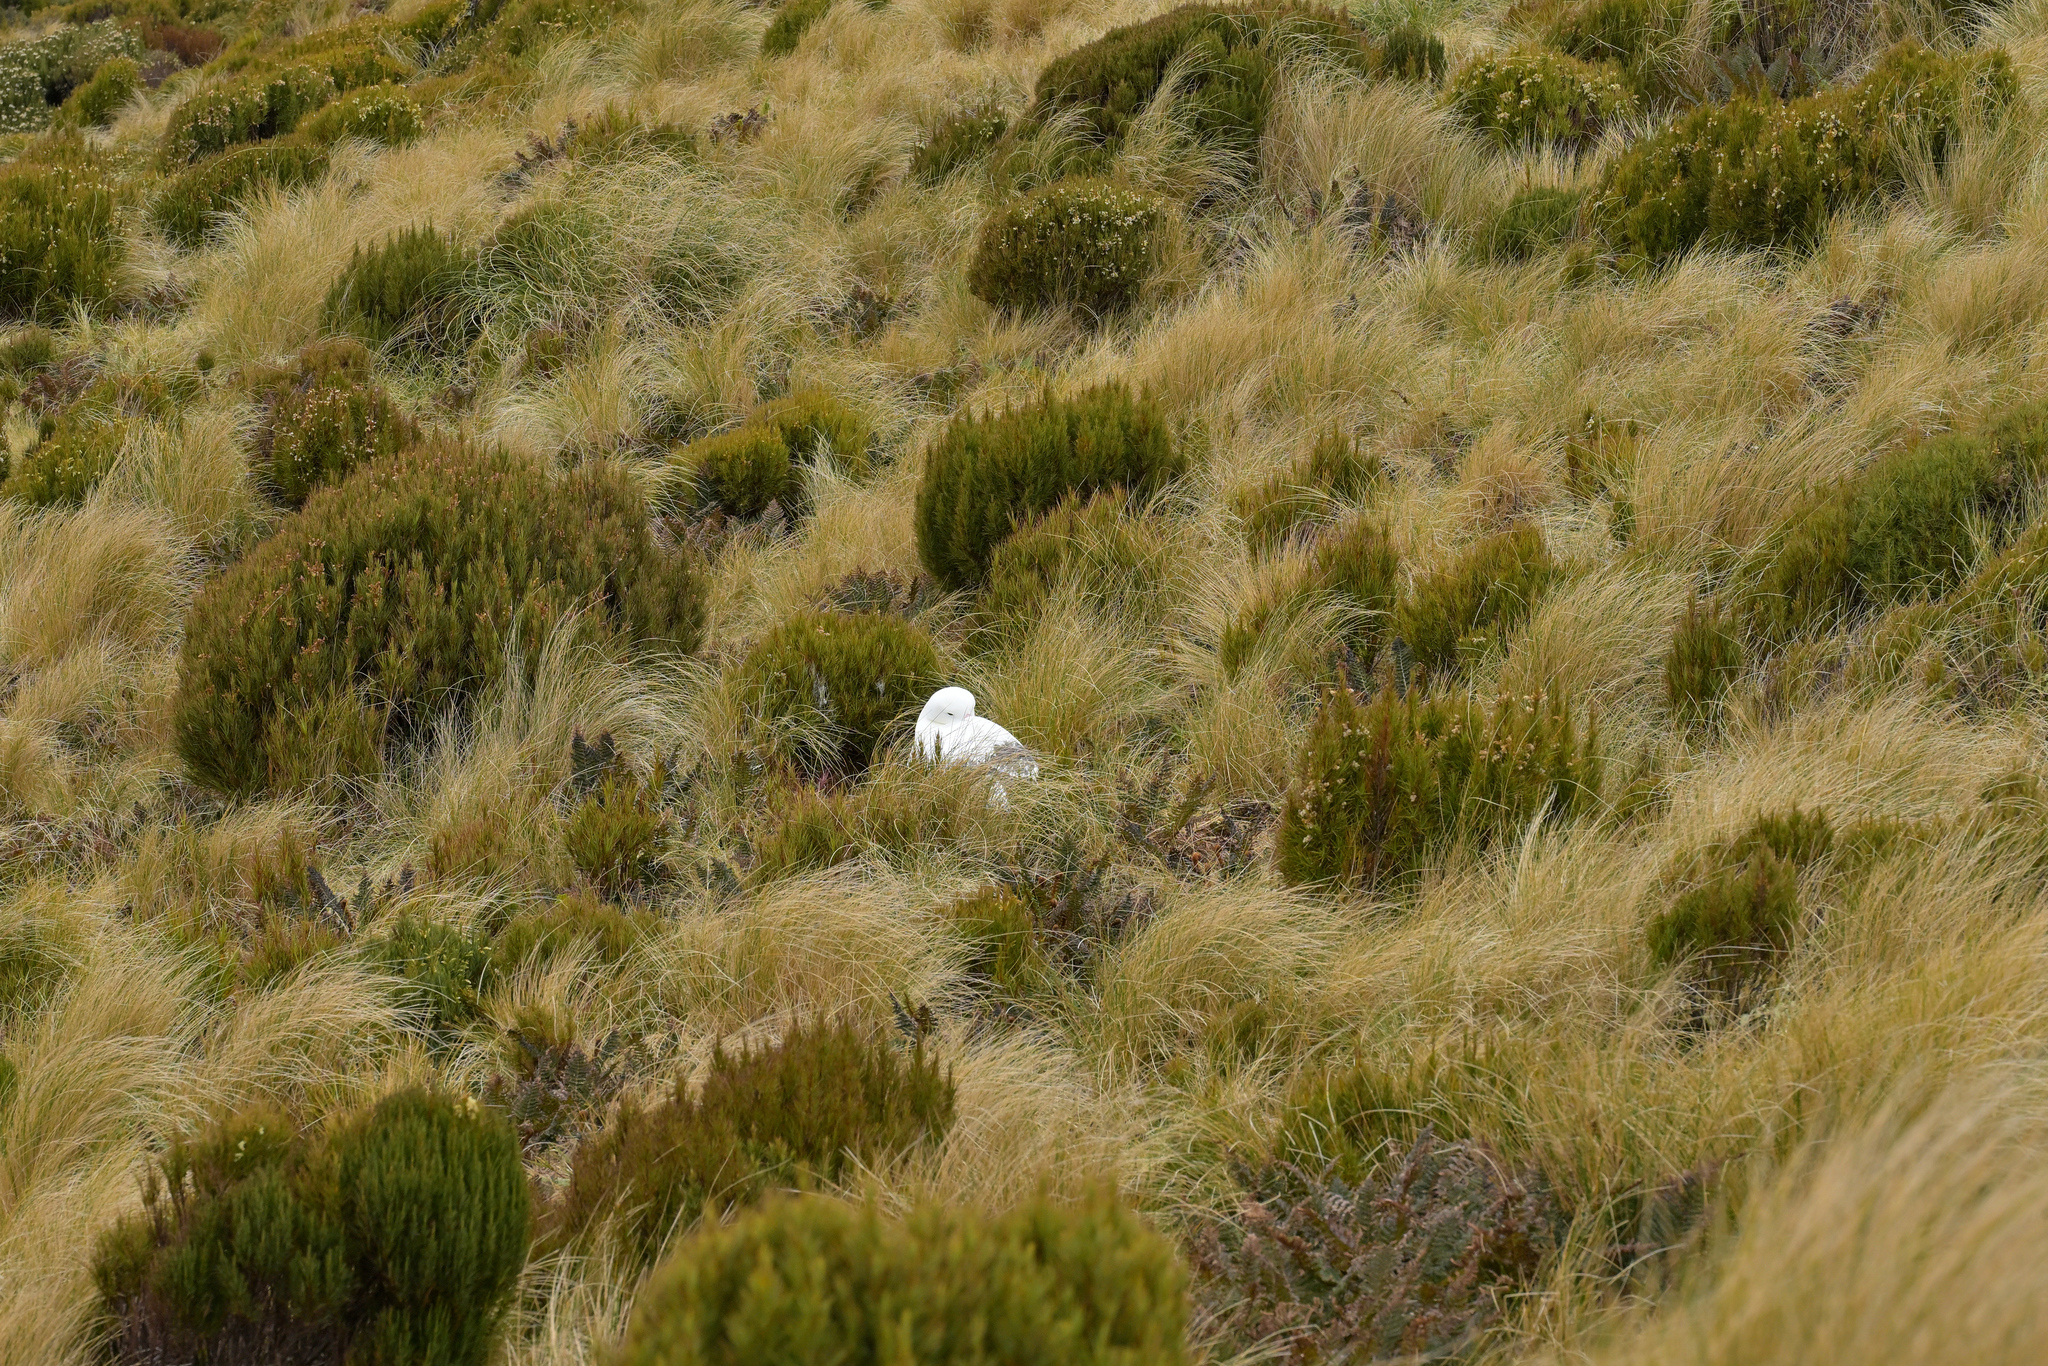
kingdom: Animalia
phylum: Chordata
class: Aves
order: Procellariiformes
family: Diomedeidae
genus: Diomedea
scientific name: Diomedea epomophora
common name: Southern royal albatross
